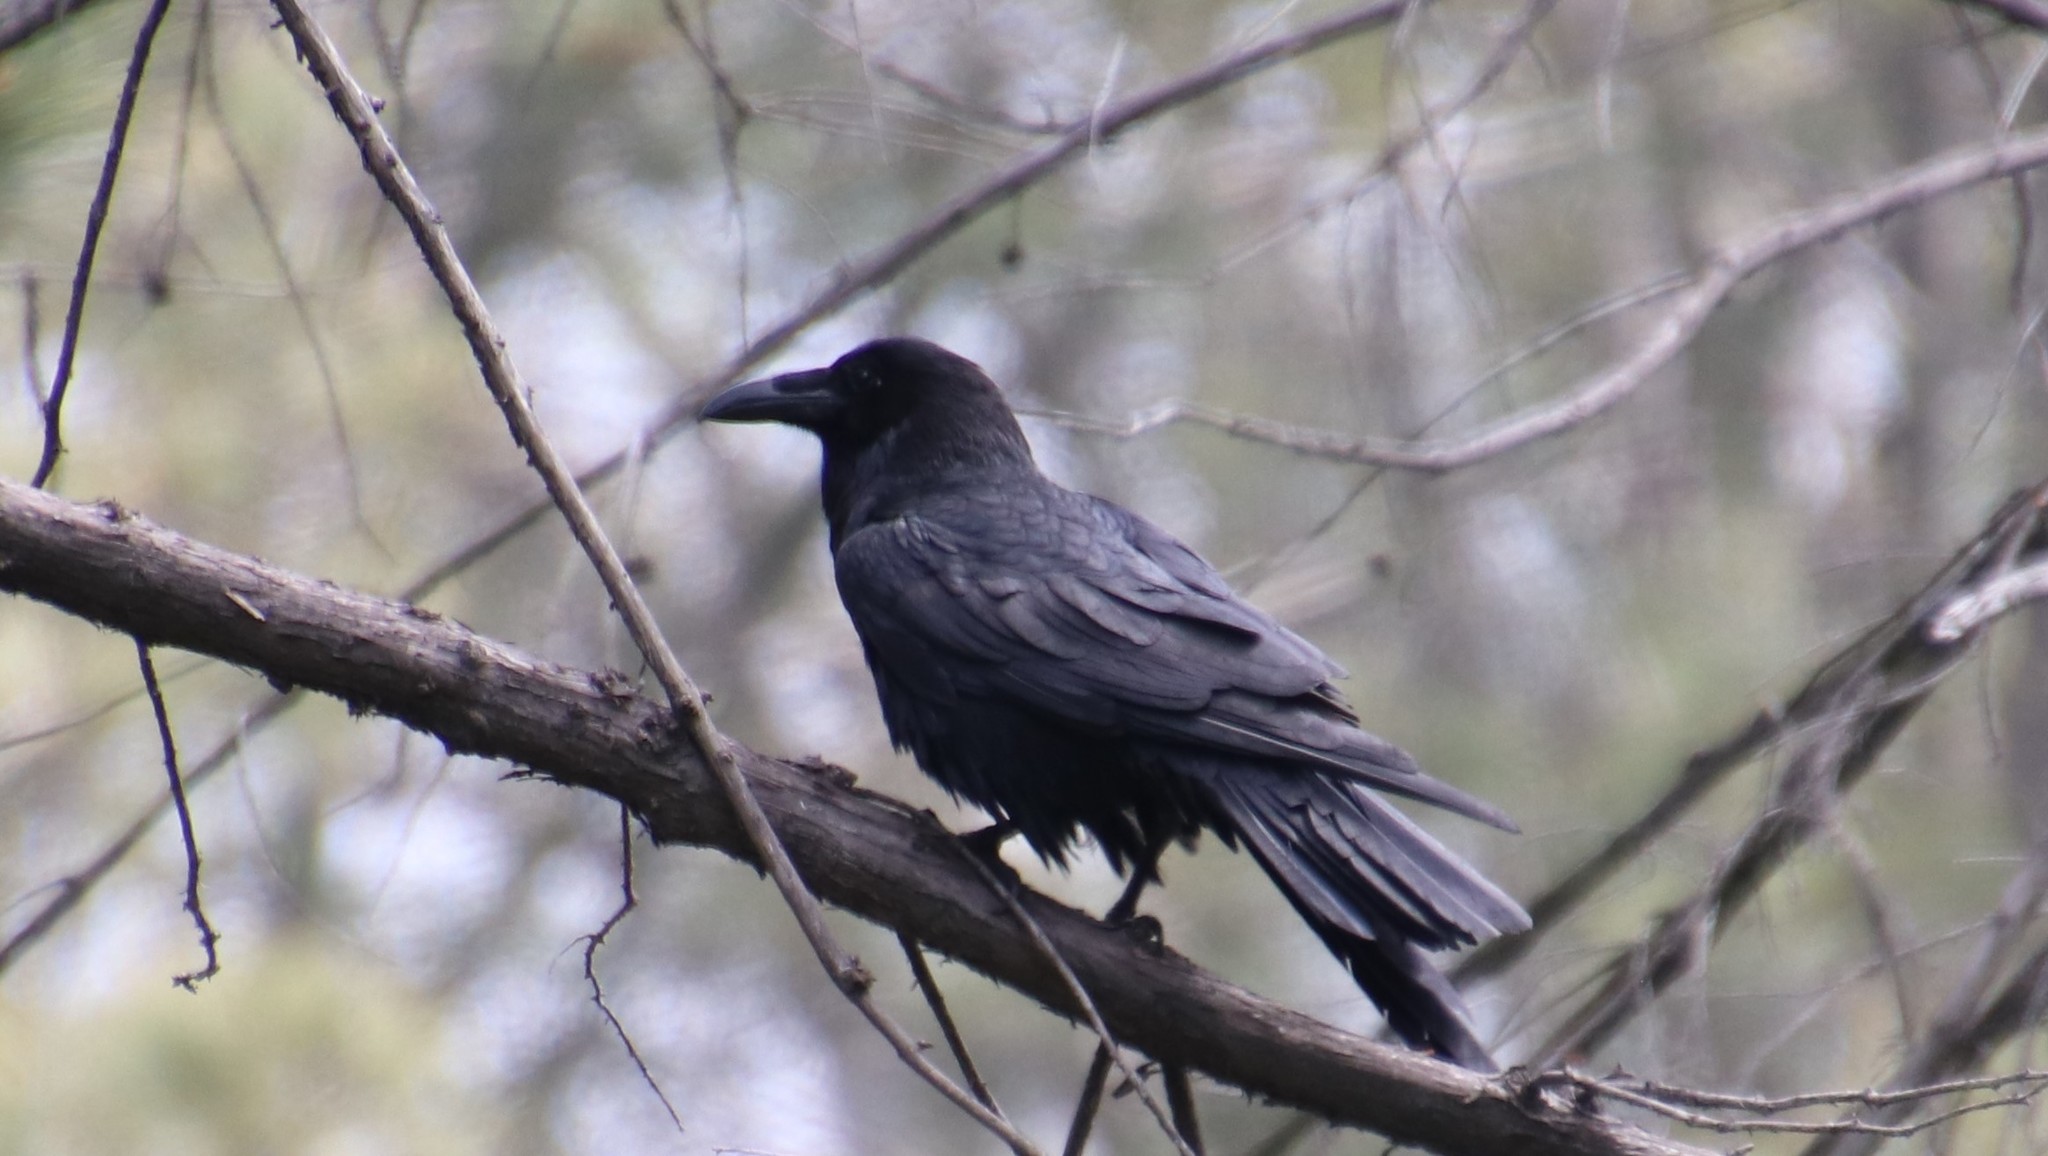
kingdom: Animalia
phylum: Chordata
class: Aves
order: Passeriformes
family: Corvidae
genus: Corvus
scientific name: Corvus corax
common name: Common raven
